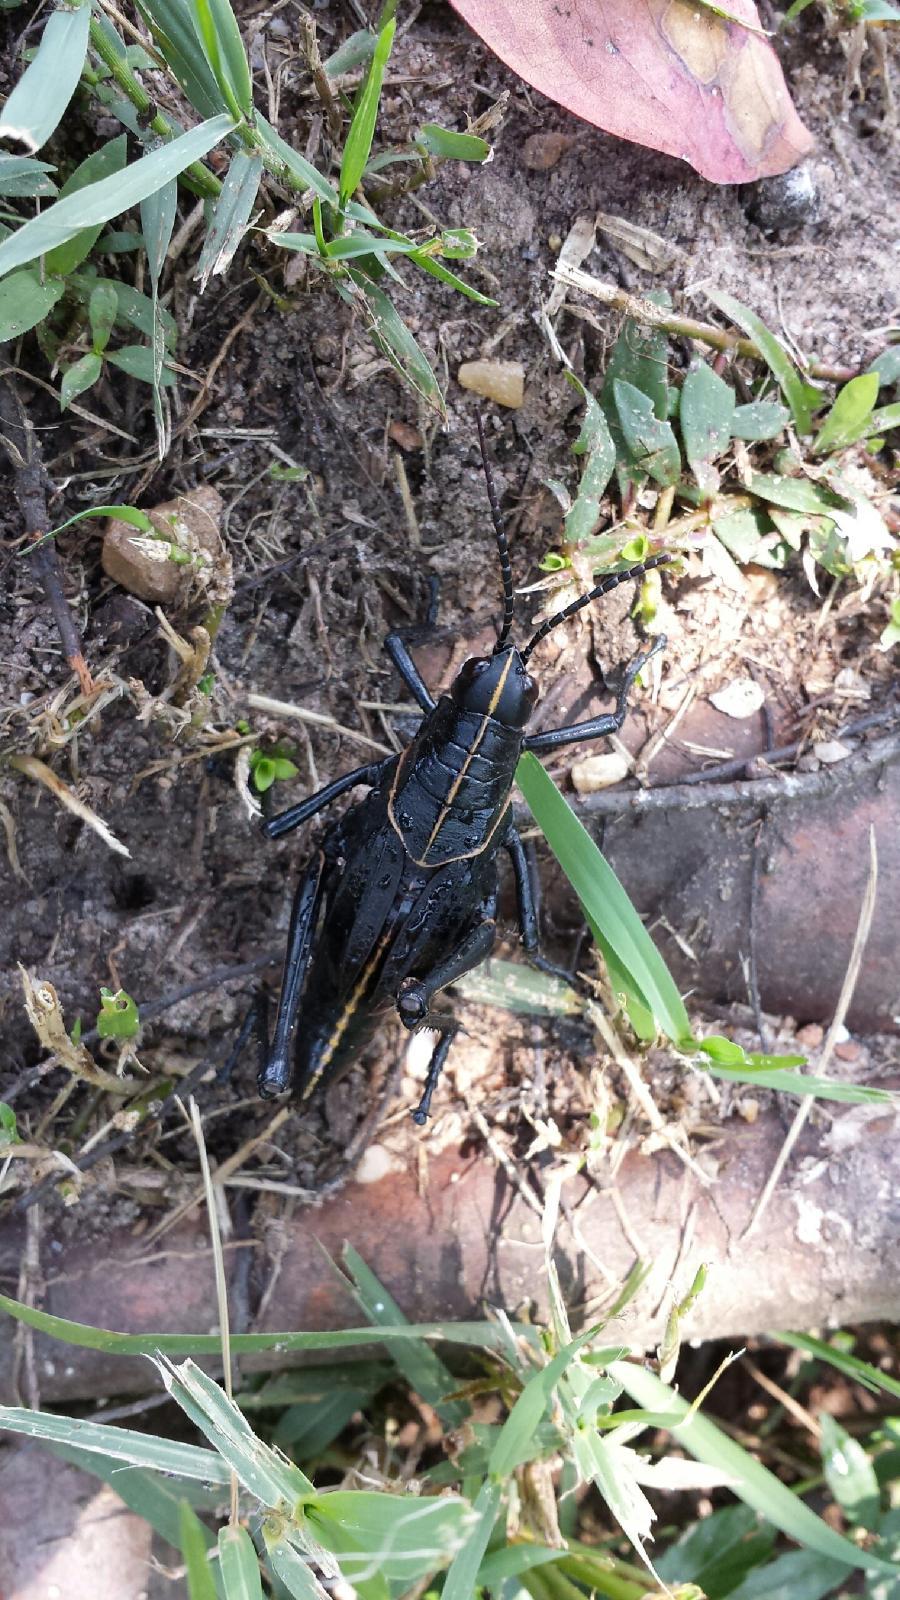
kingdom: Animalia
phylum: Arthropoda
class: Insecta
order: Orthoptera
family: Romaleidae
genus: Romalea
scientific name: Romalea microptera
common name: Eastern lubber grasshopper
